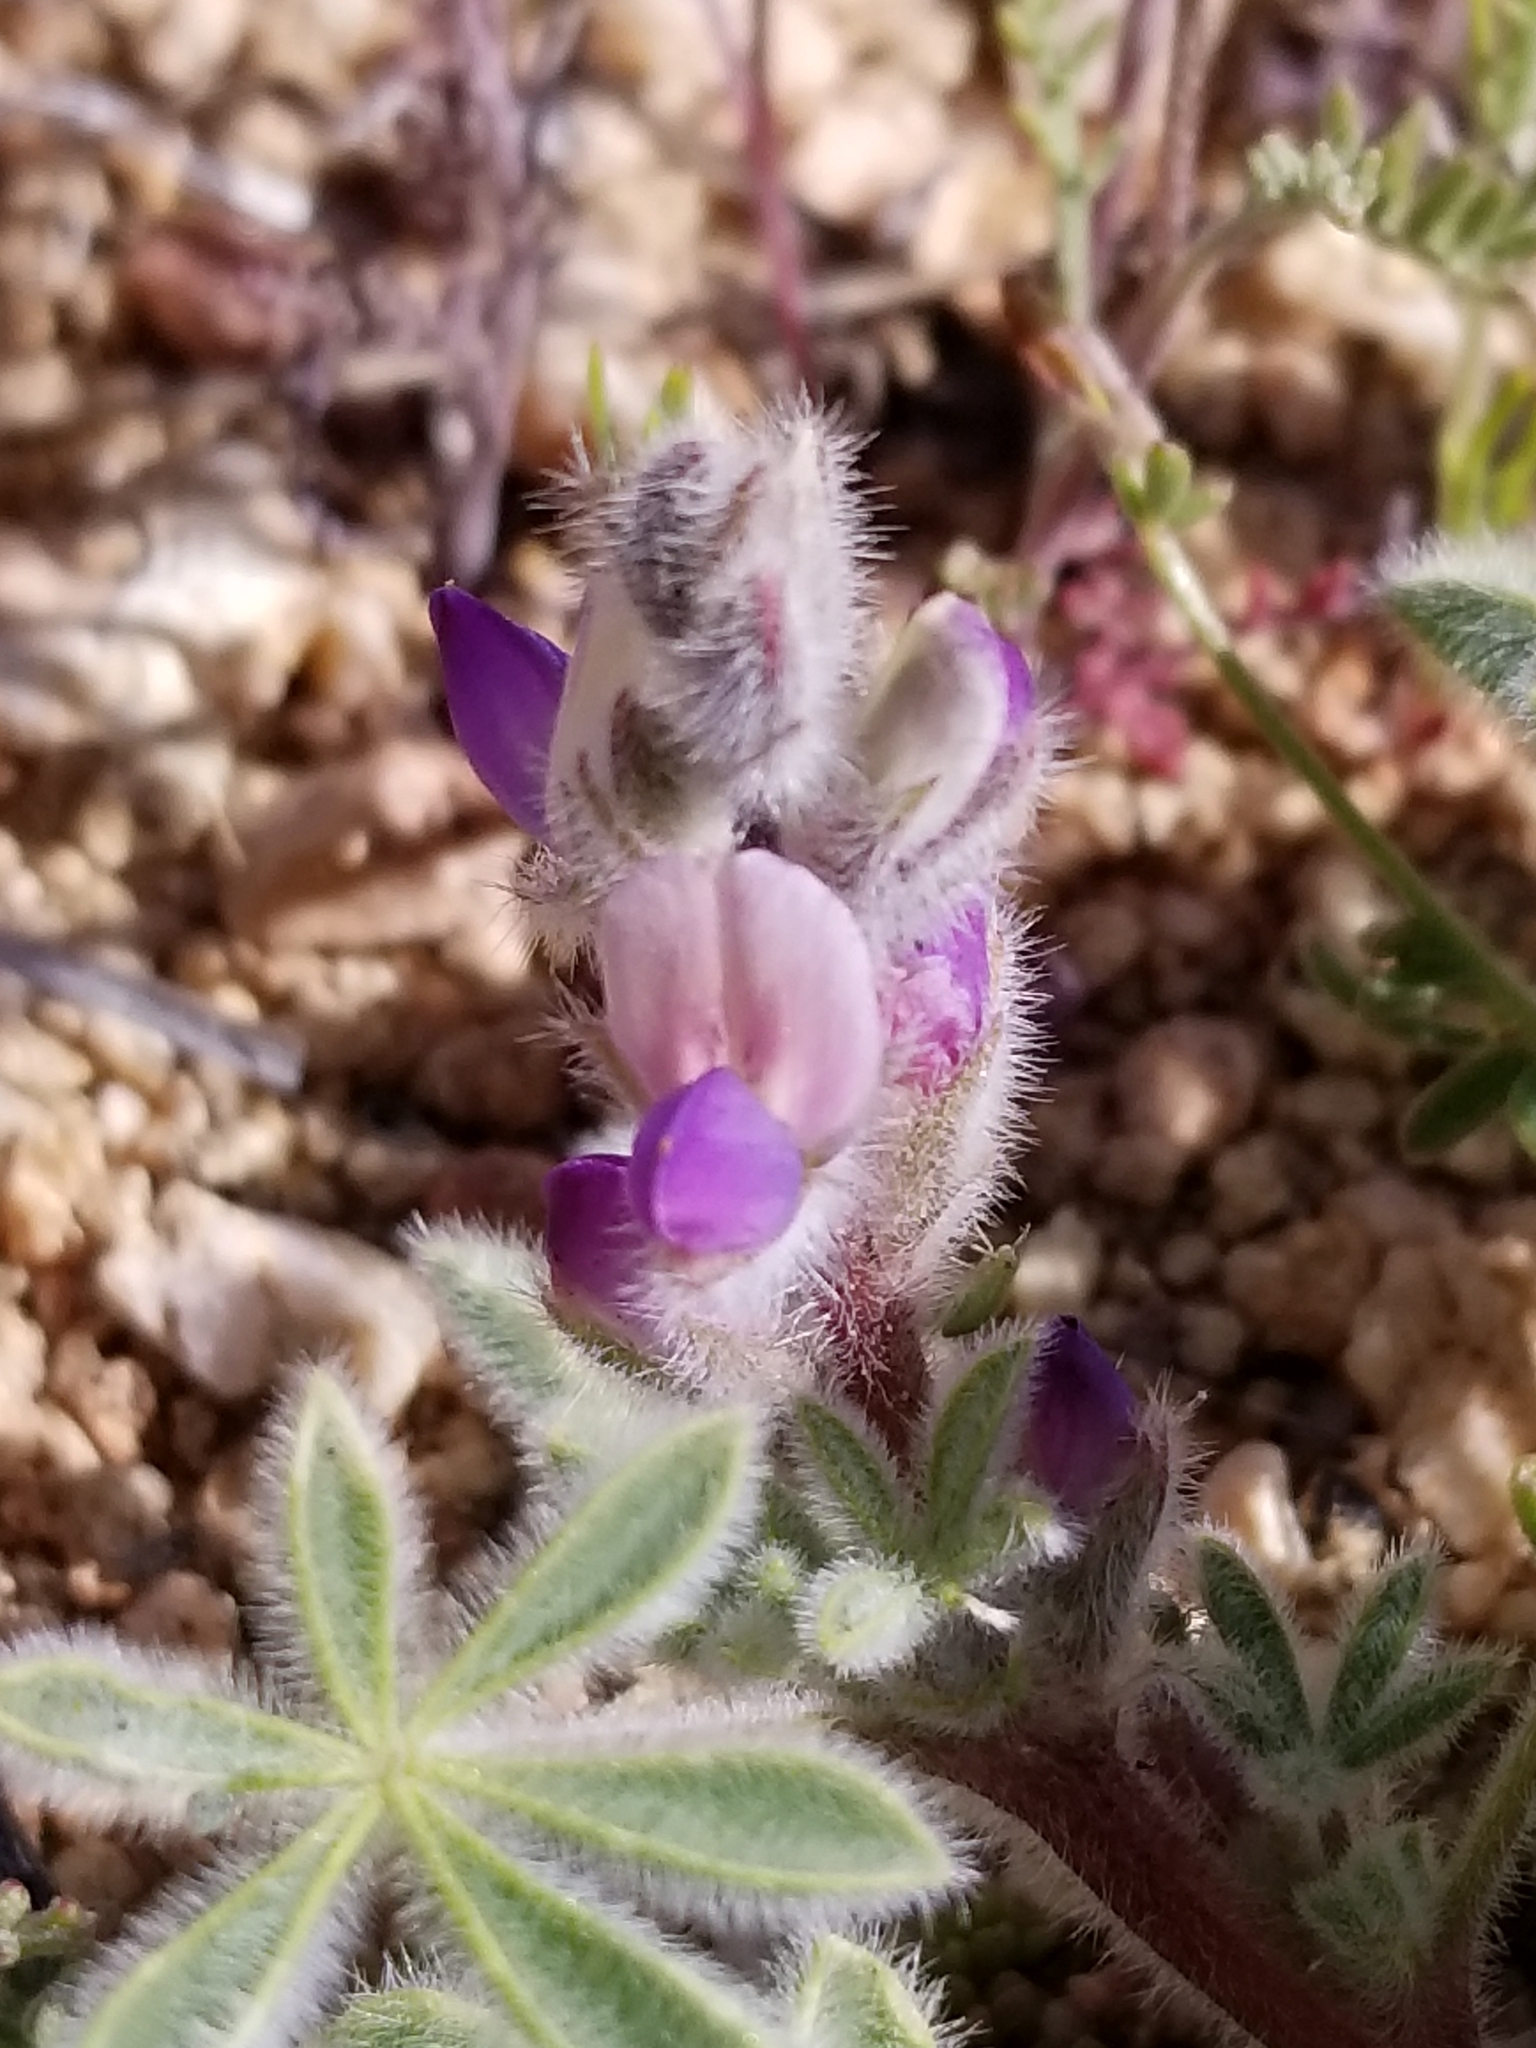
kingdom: Plantae
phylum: Tracheophyta
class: Magnoliopsida
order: Fabales
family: Fabaceae
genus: Lupinus
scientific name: Lupinus concinnus
